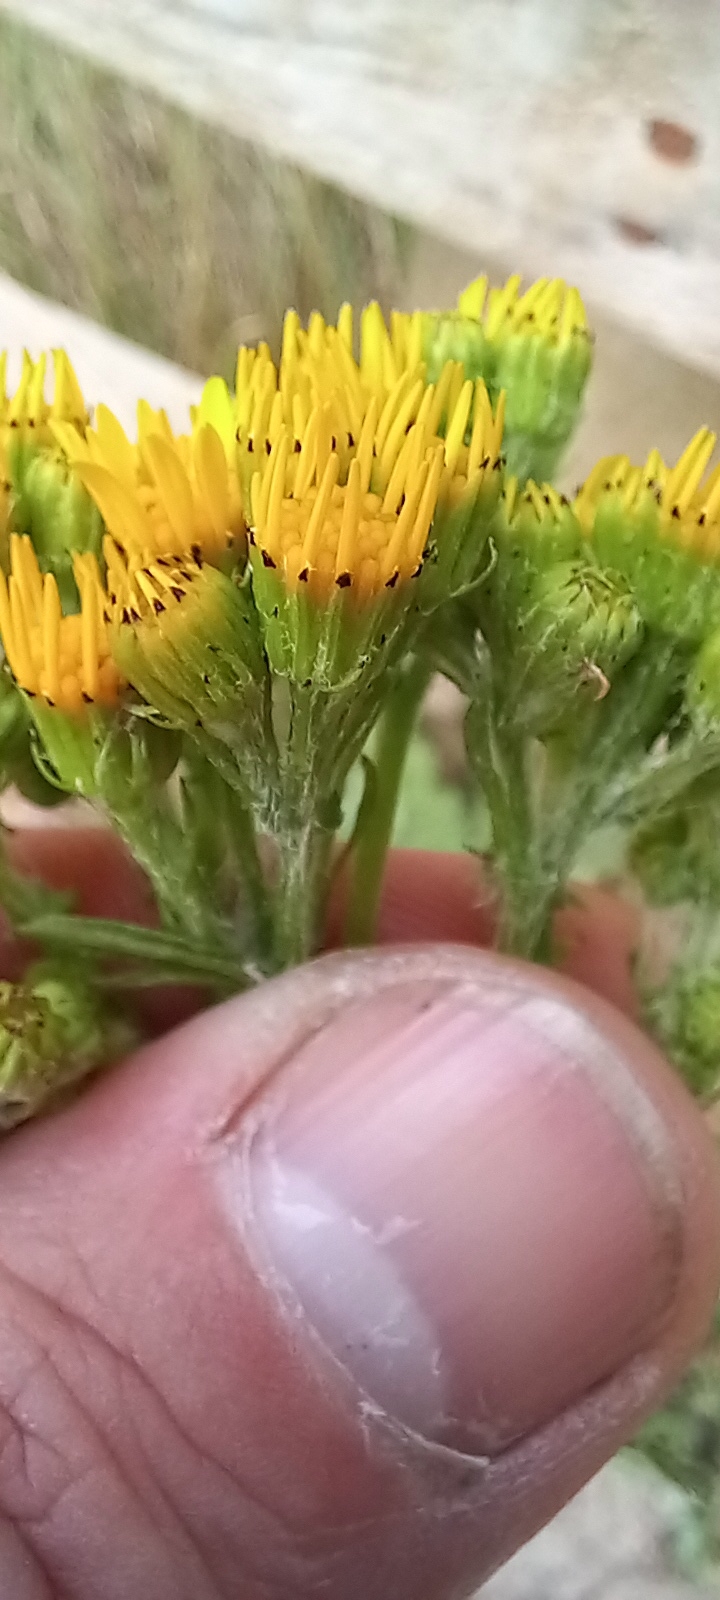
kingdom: Plantae
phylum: Tracheophyta
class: Magnoliopsida
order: Asterales
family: Asteraceae
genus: Jacobaea
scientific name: Jacobaea vulgaris
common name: Stinking willie
